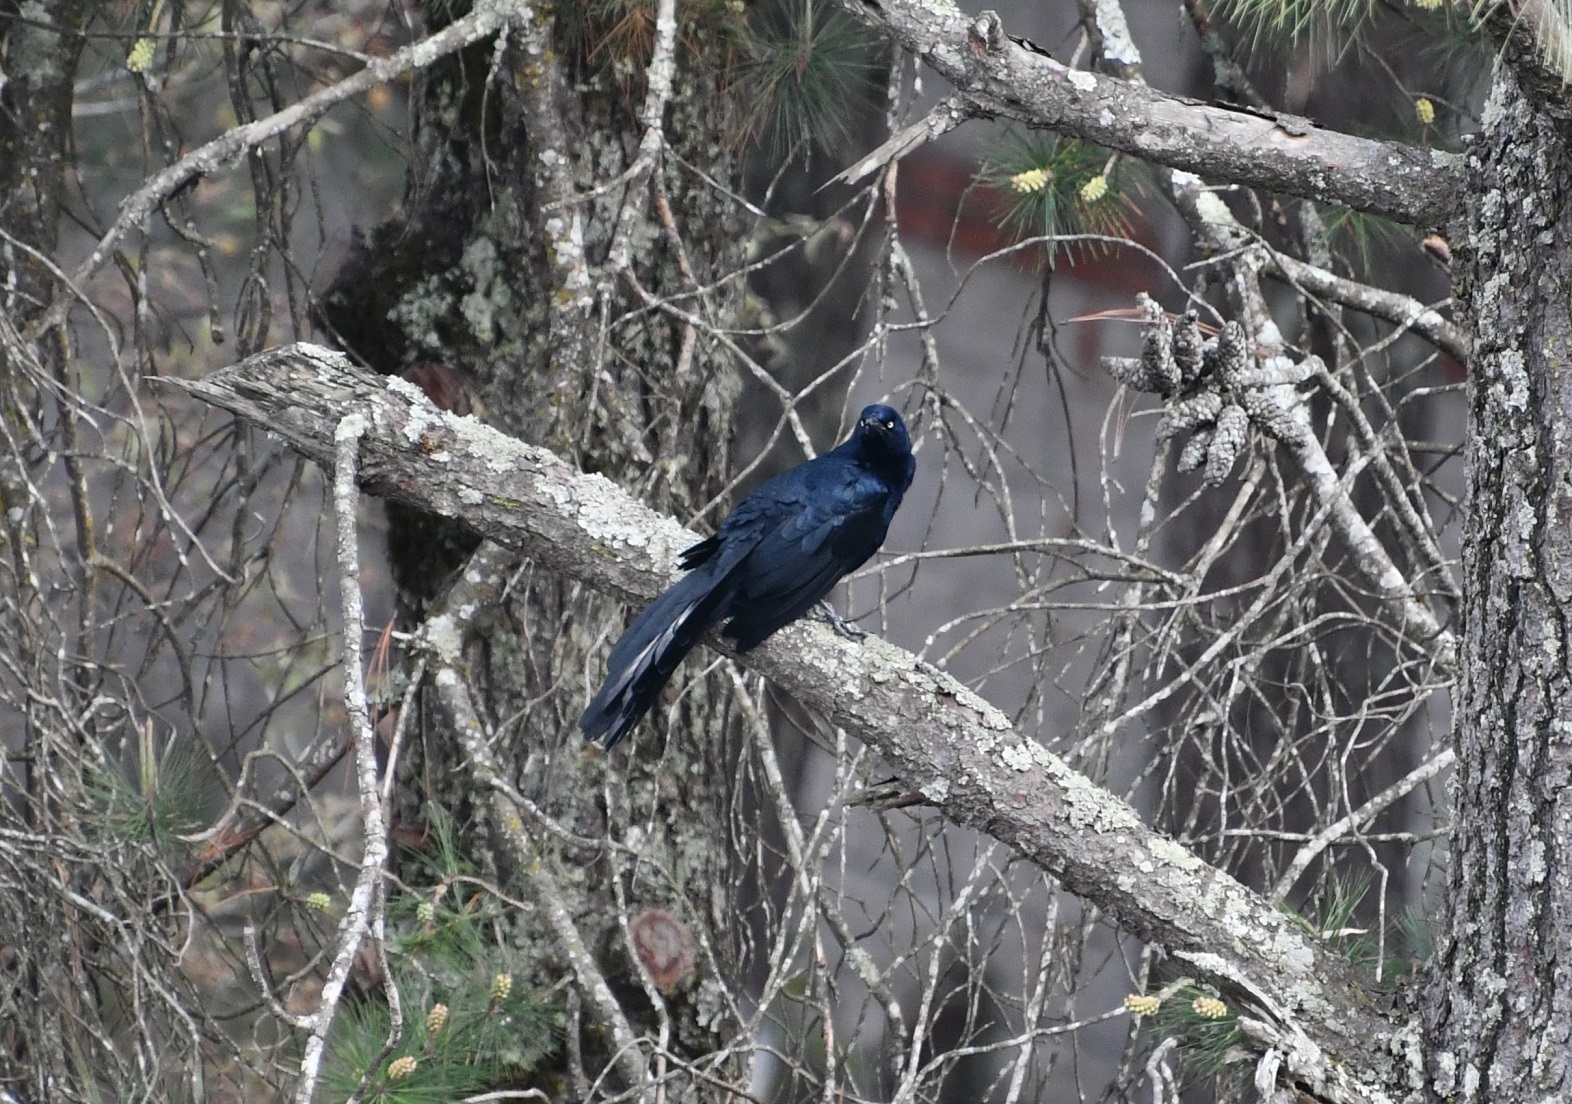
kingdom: Animalia
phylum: Chordata
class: Aves
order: Passeriformes
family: Icteridae
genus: Quiscalus
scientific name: Quiscalus mexicanus
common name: Great-tailed grackle
